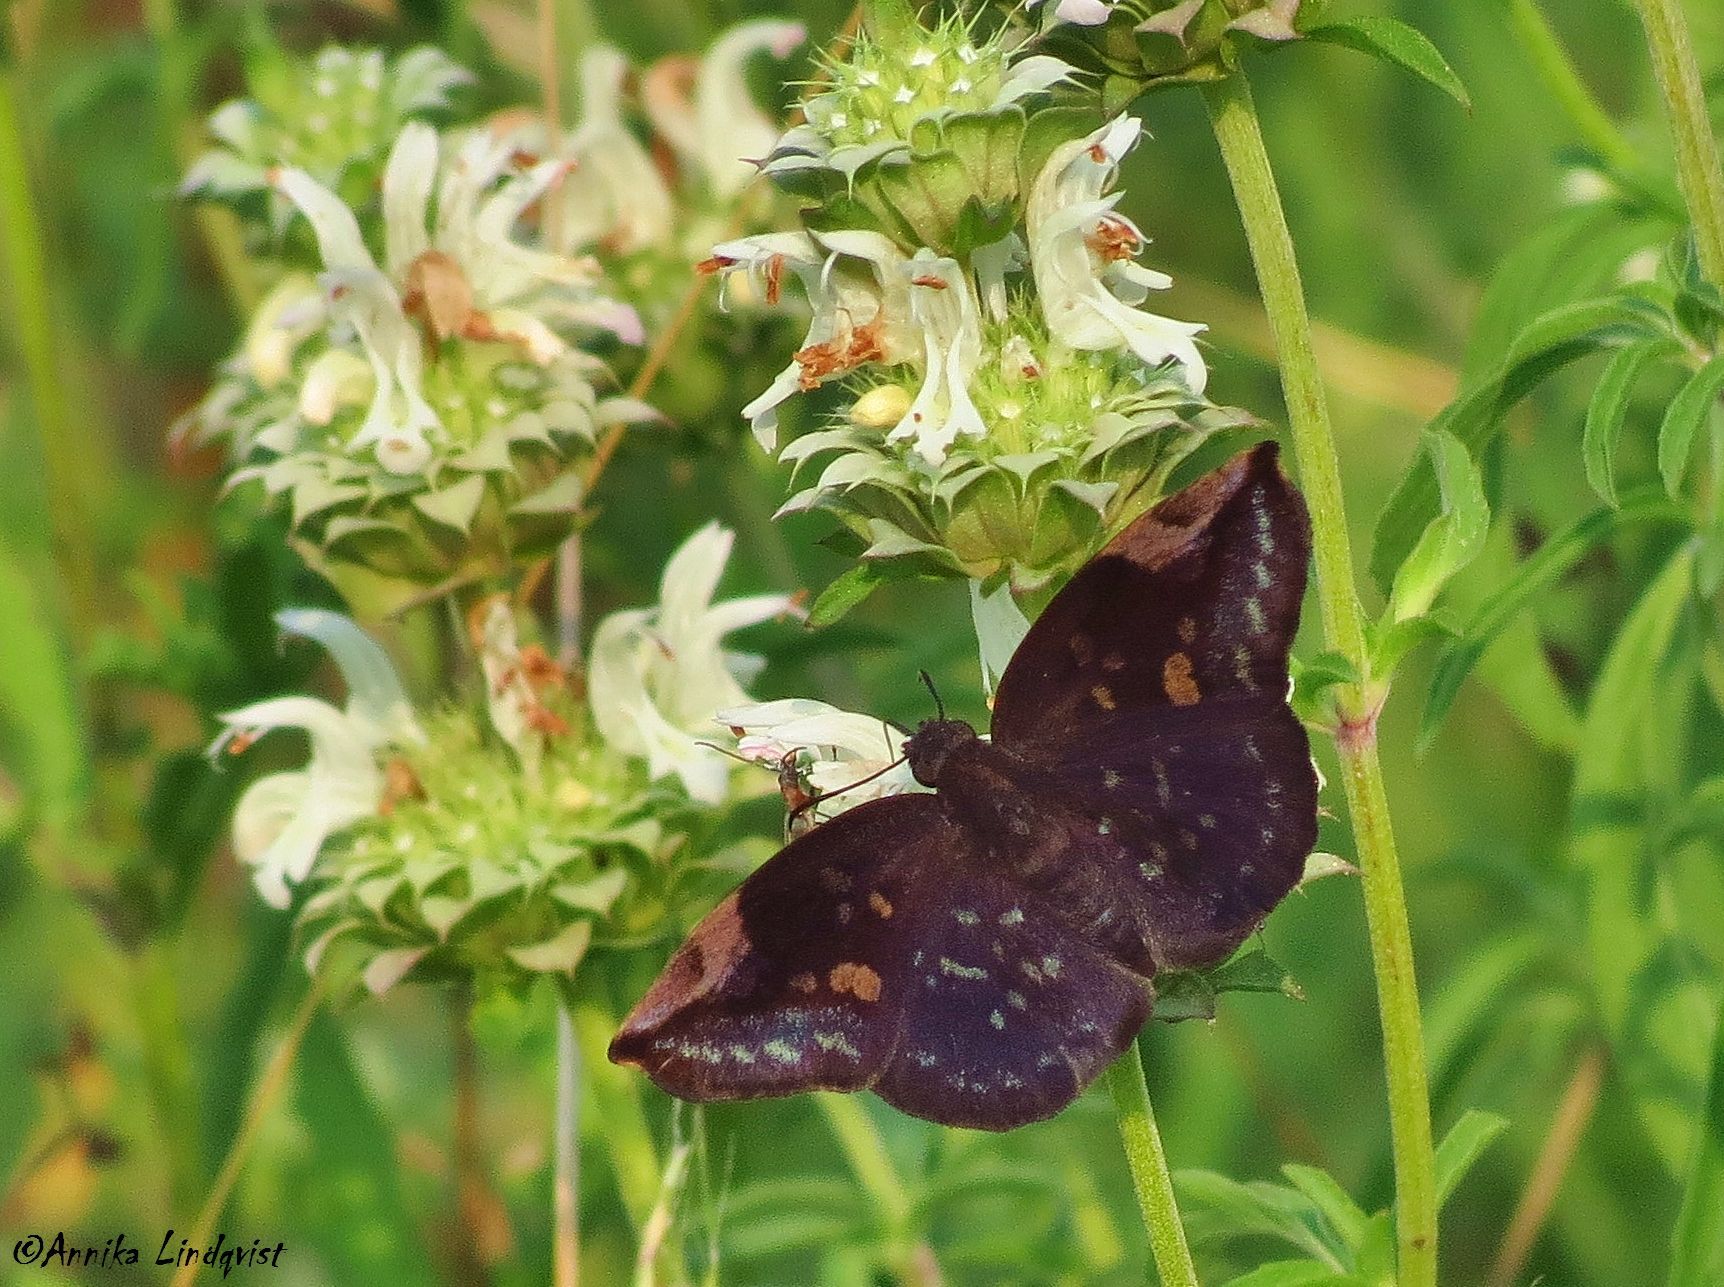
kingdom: Animalia
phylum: Arthropoda
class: Insecta
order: Lepidoptera
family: Hesperiidae
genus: Achlyodes
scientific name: Achlyodes thraso
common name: Sickle-winged skipper
